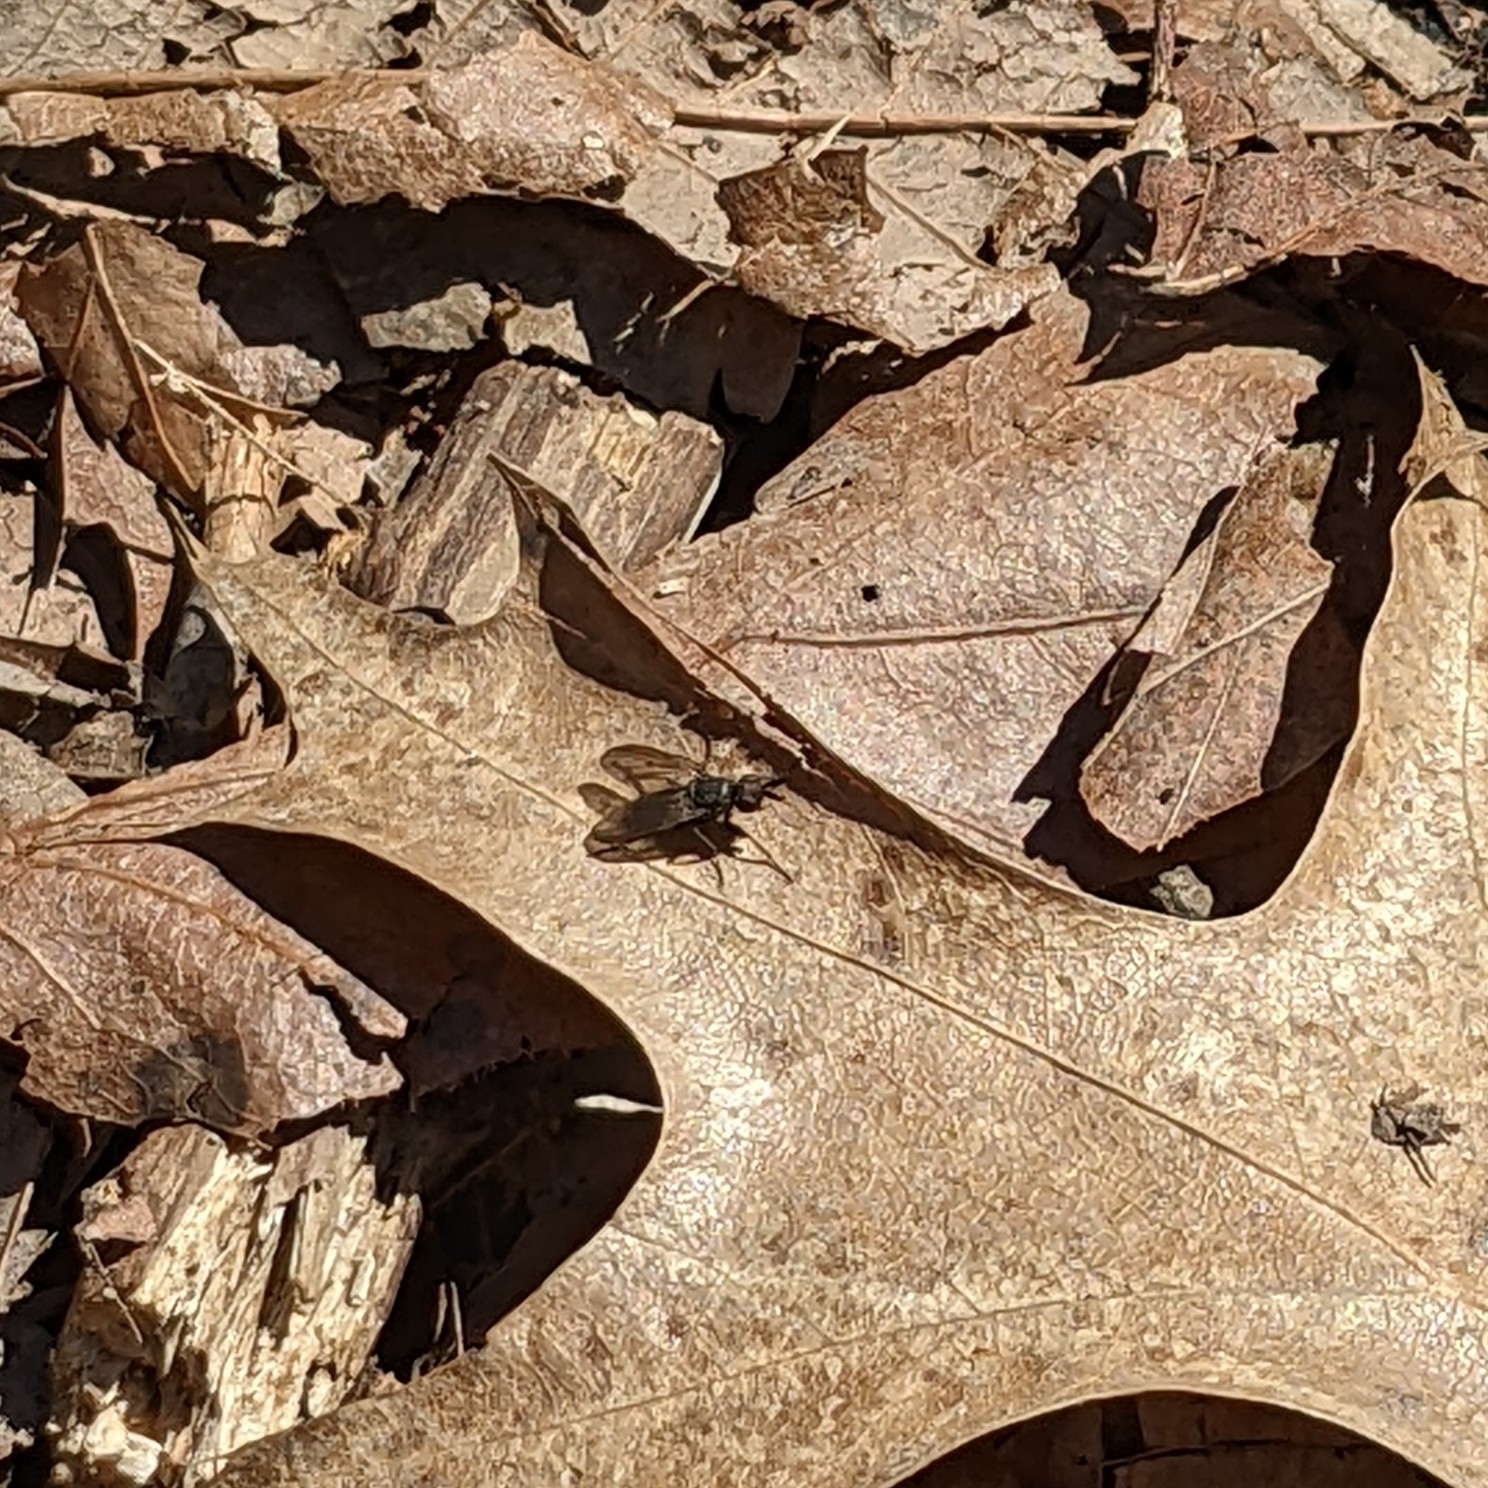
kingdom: Animalia
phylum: Arthropoda
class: Insecta
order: Diptera
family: Scathophagidae
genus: Bucephalina
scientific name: Bucephalina megacephala
